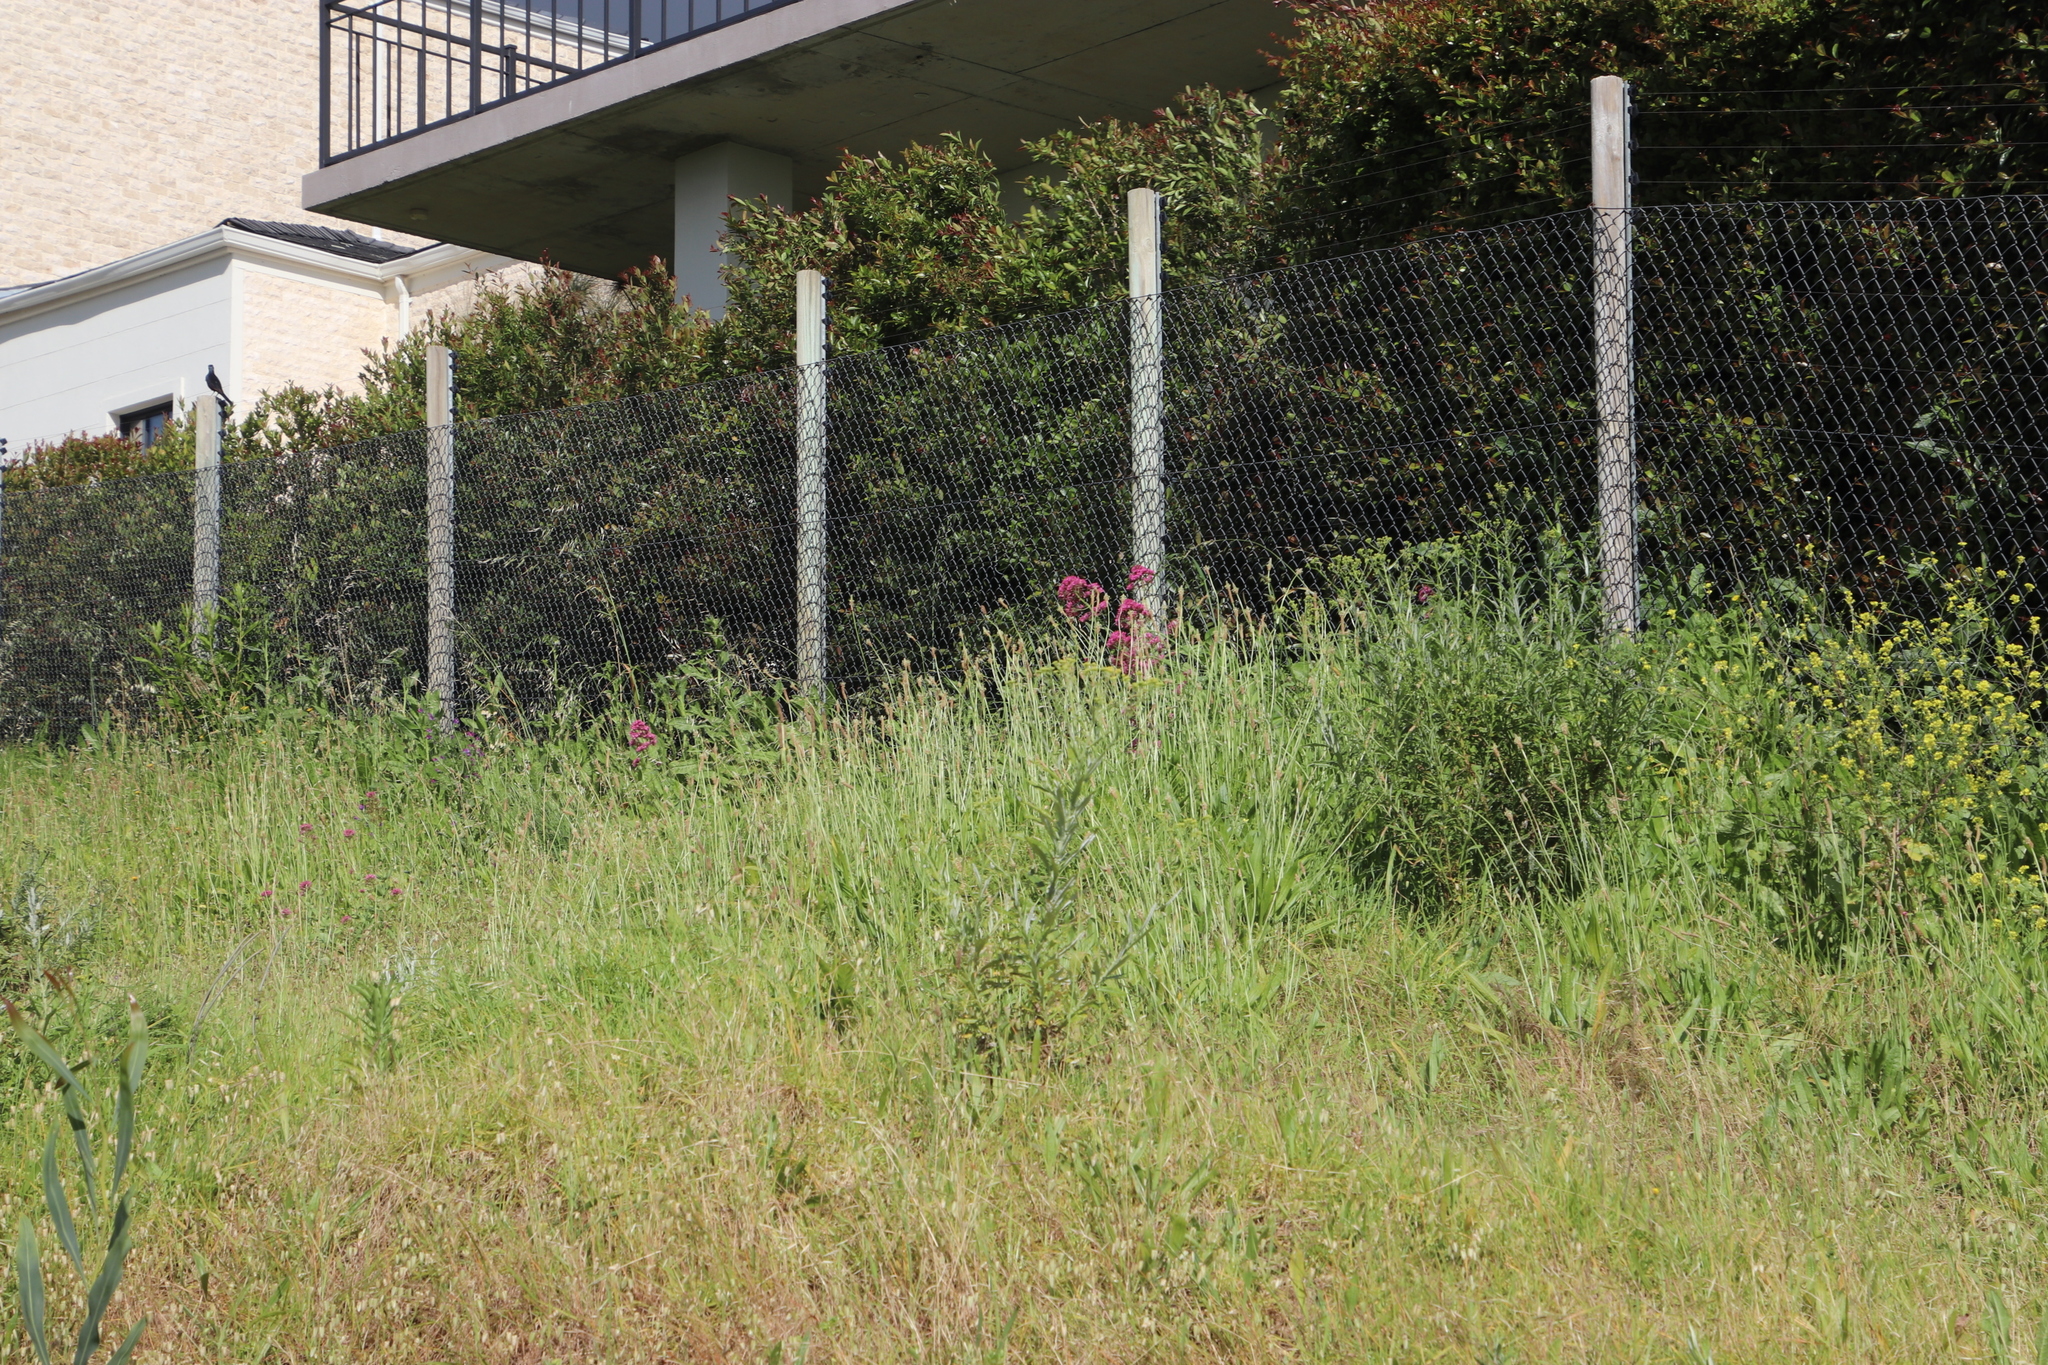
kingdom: Plantae
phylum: Tracheophyta
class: Magnoliopsida
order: Dipsacales
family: Caprifoliaceae
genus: Centranthus
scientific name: Centranthus ruber
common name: Red valerian
